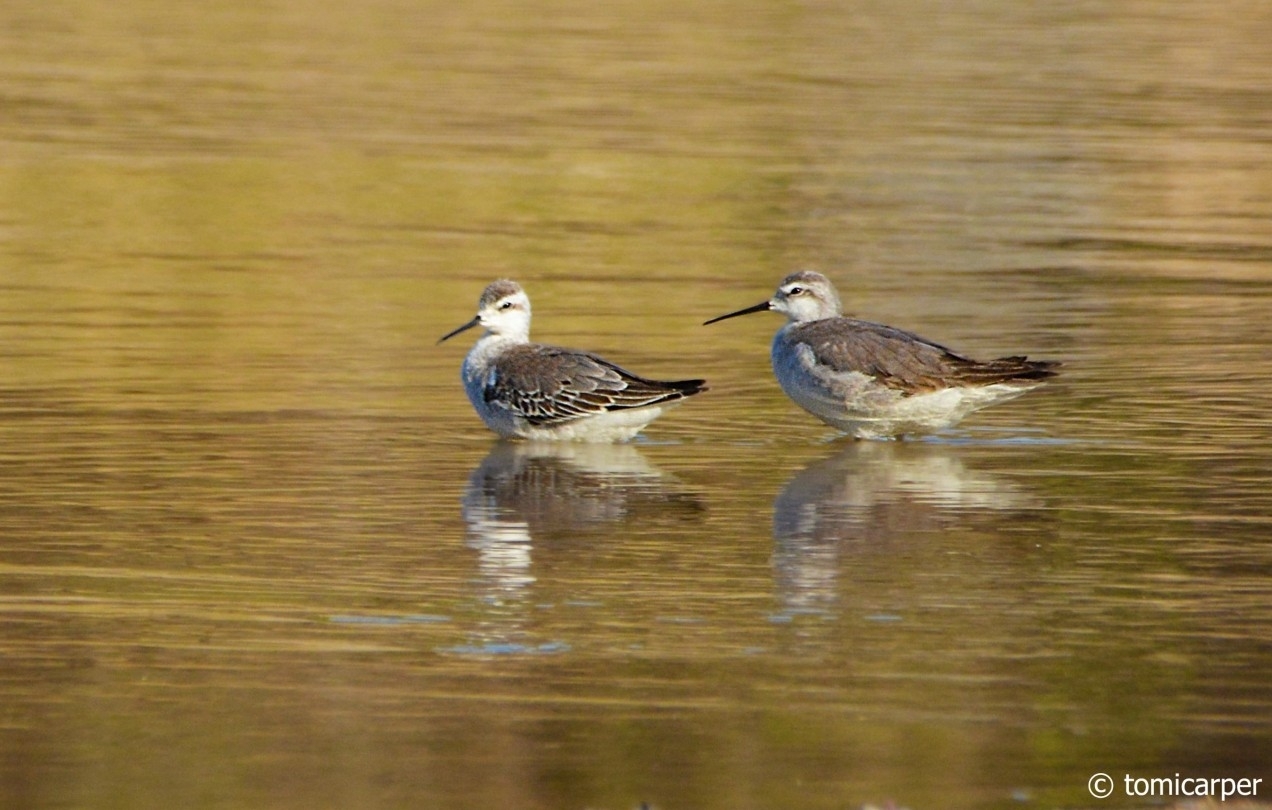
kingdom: Animalia
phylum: Chordata
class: Aves
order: Charadriiformes
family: Scolopacidae
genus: Phalaropus
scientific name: Phalaropus tricolor
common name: Wilson's phalarope
